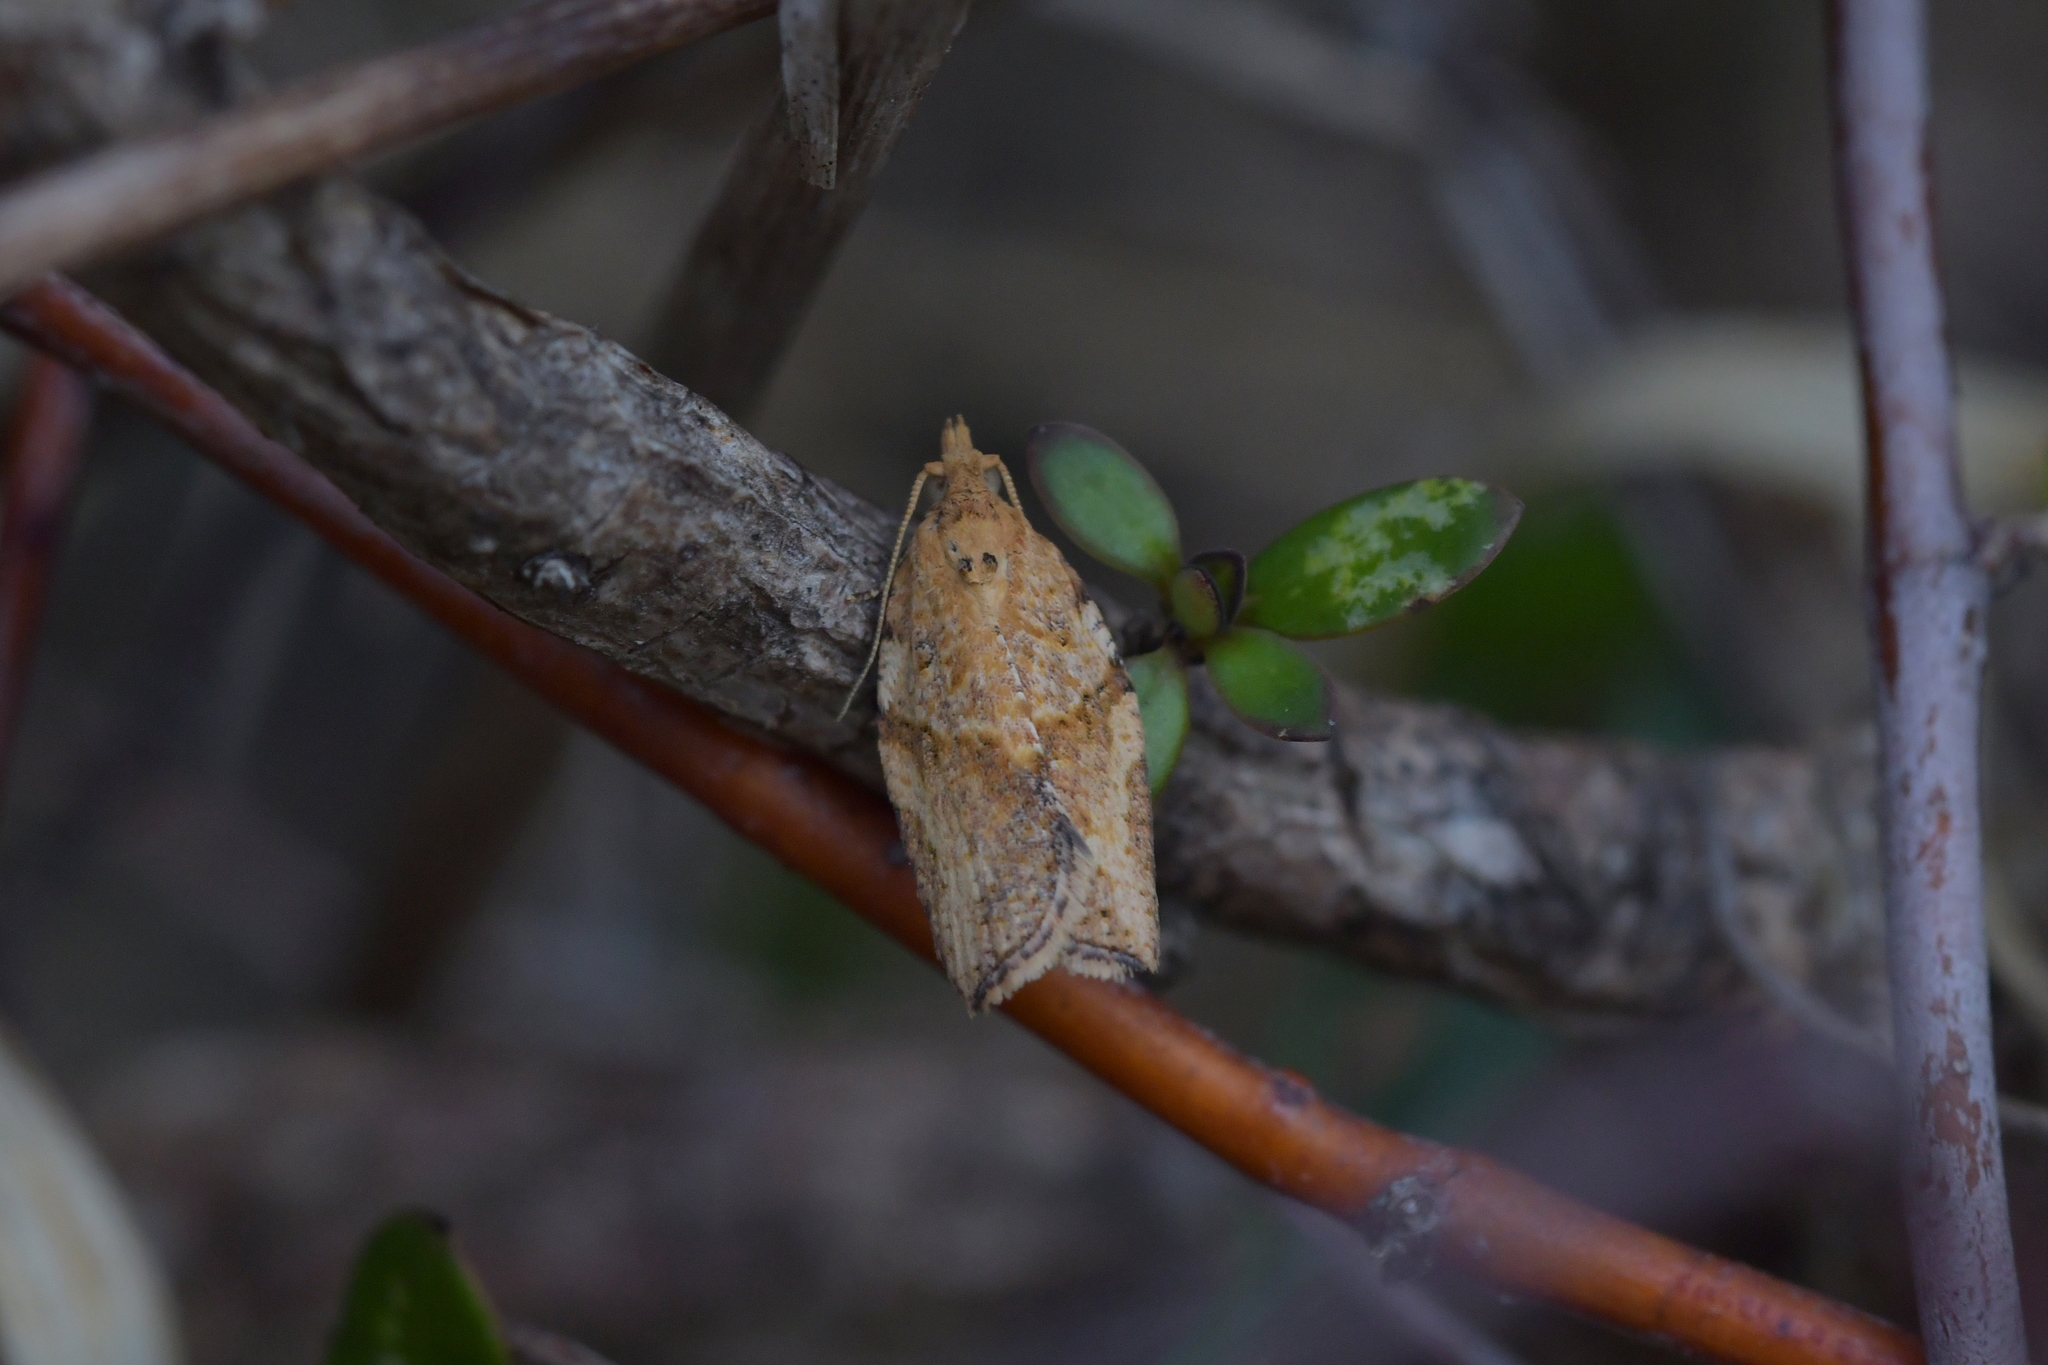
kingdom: Animalia
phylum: Arthropoda
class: Insecta
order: Lepidoptera
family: Tortricidae
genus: Epiphyas
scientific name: Epiphyas postvittana
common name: Light brown apple moth
